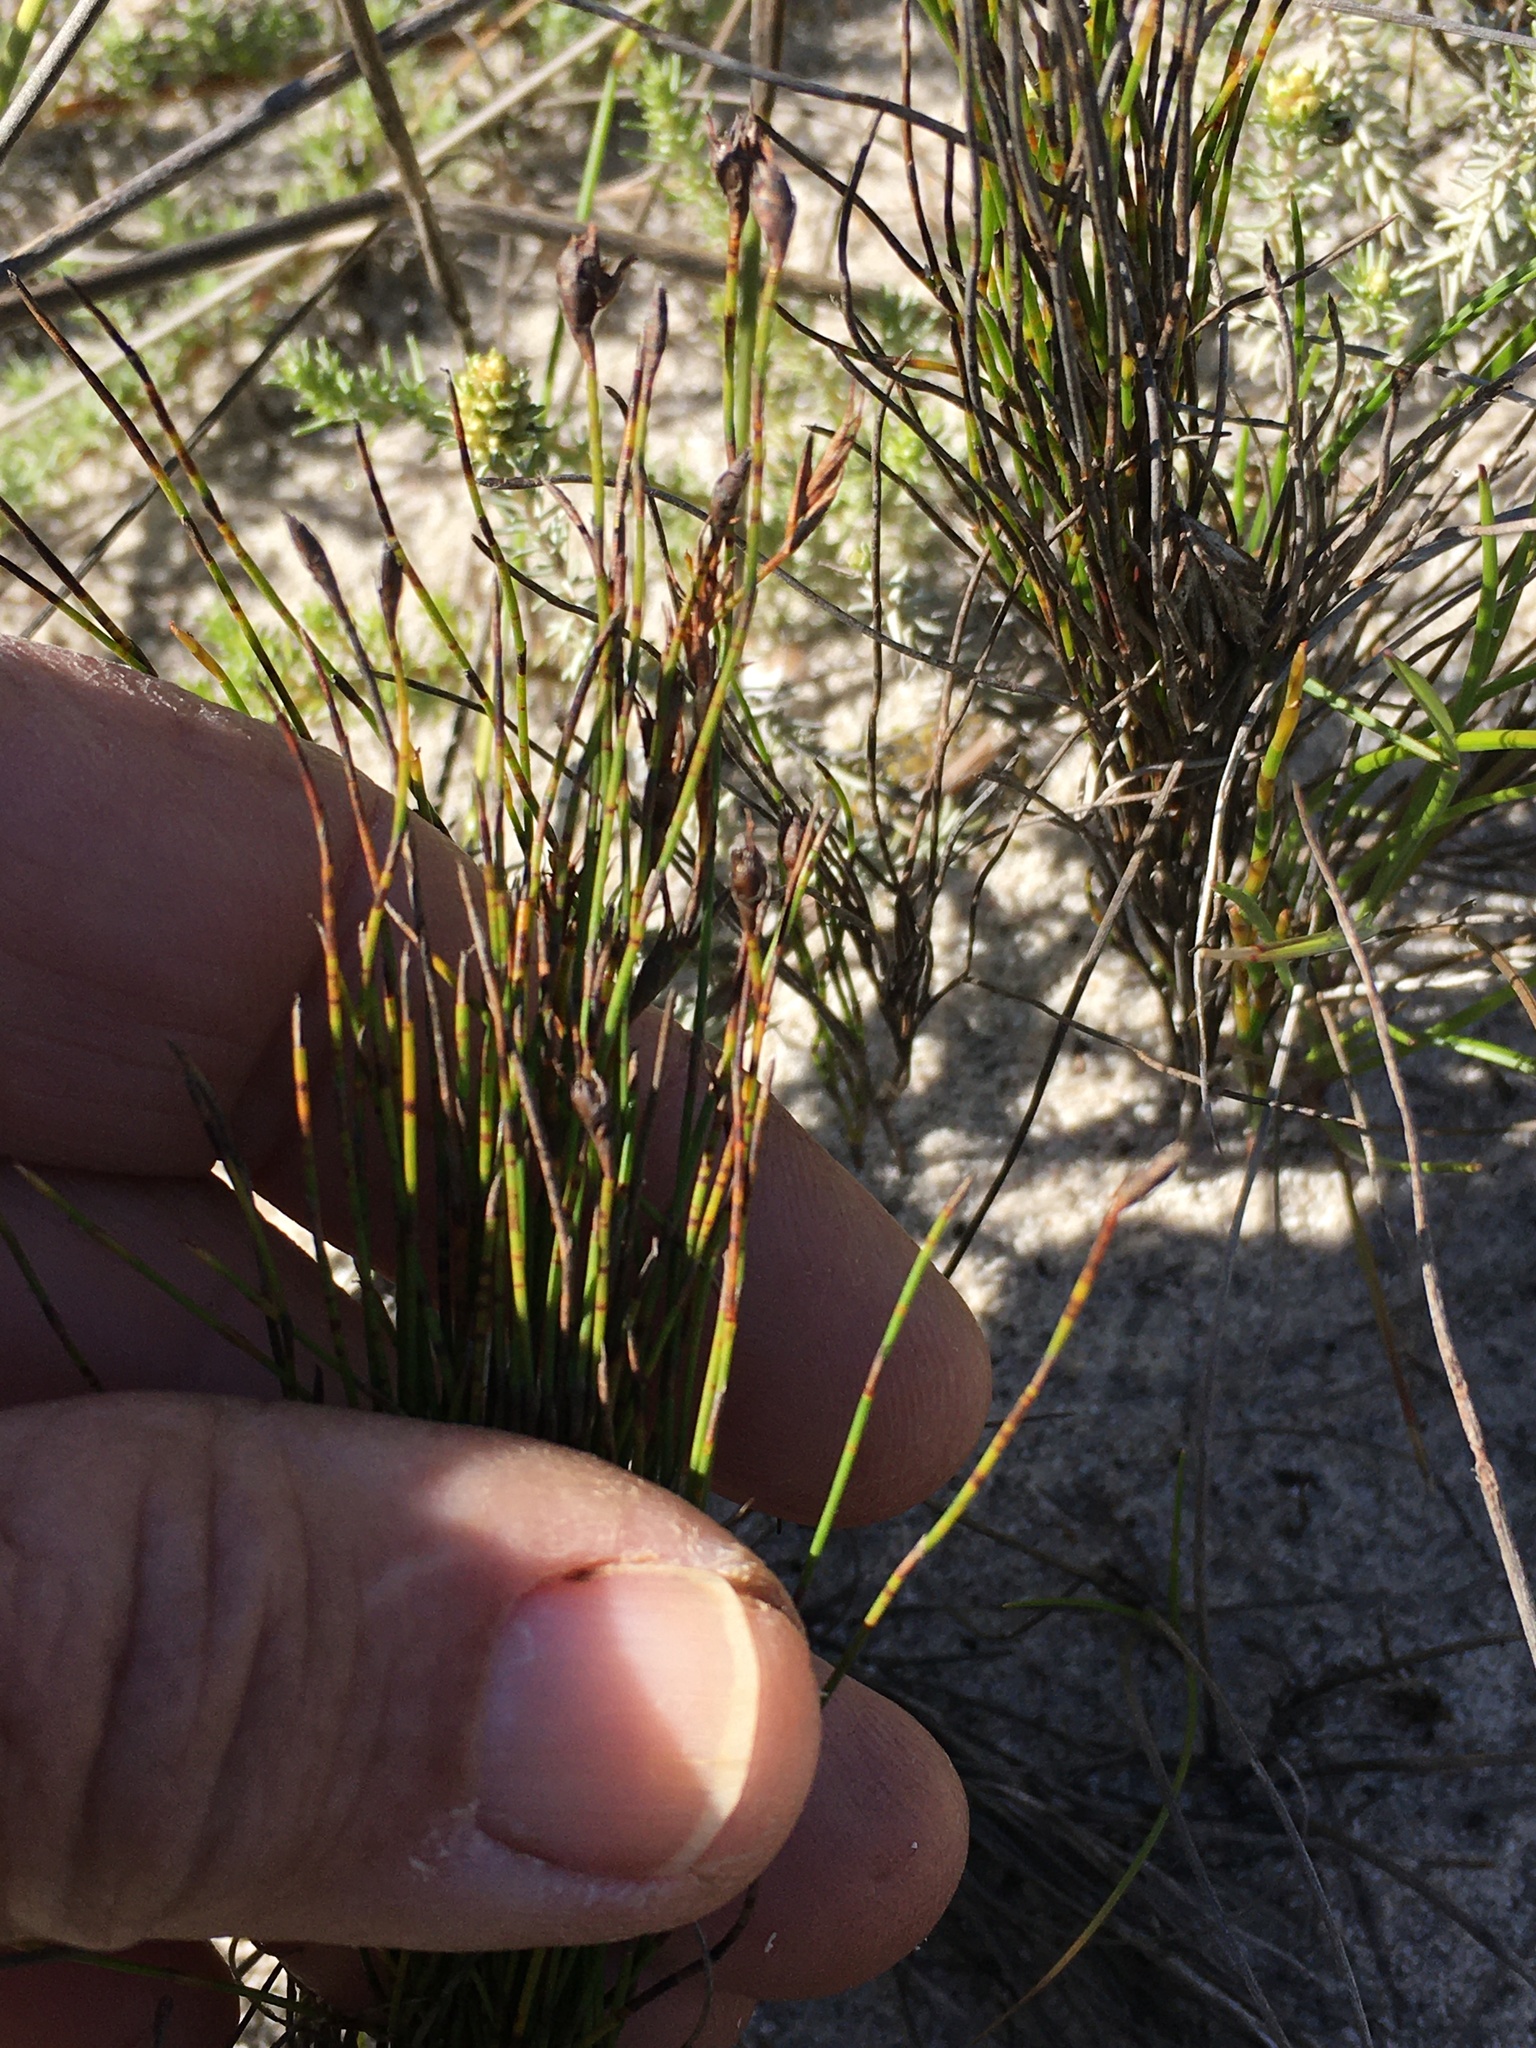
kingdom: Plantae
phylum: Tracheophyta
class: Liliopsida
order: Poales
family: Restionaceae
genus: Restio
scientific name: Restio eleocharis
